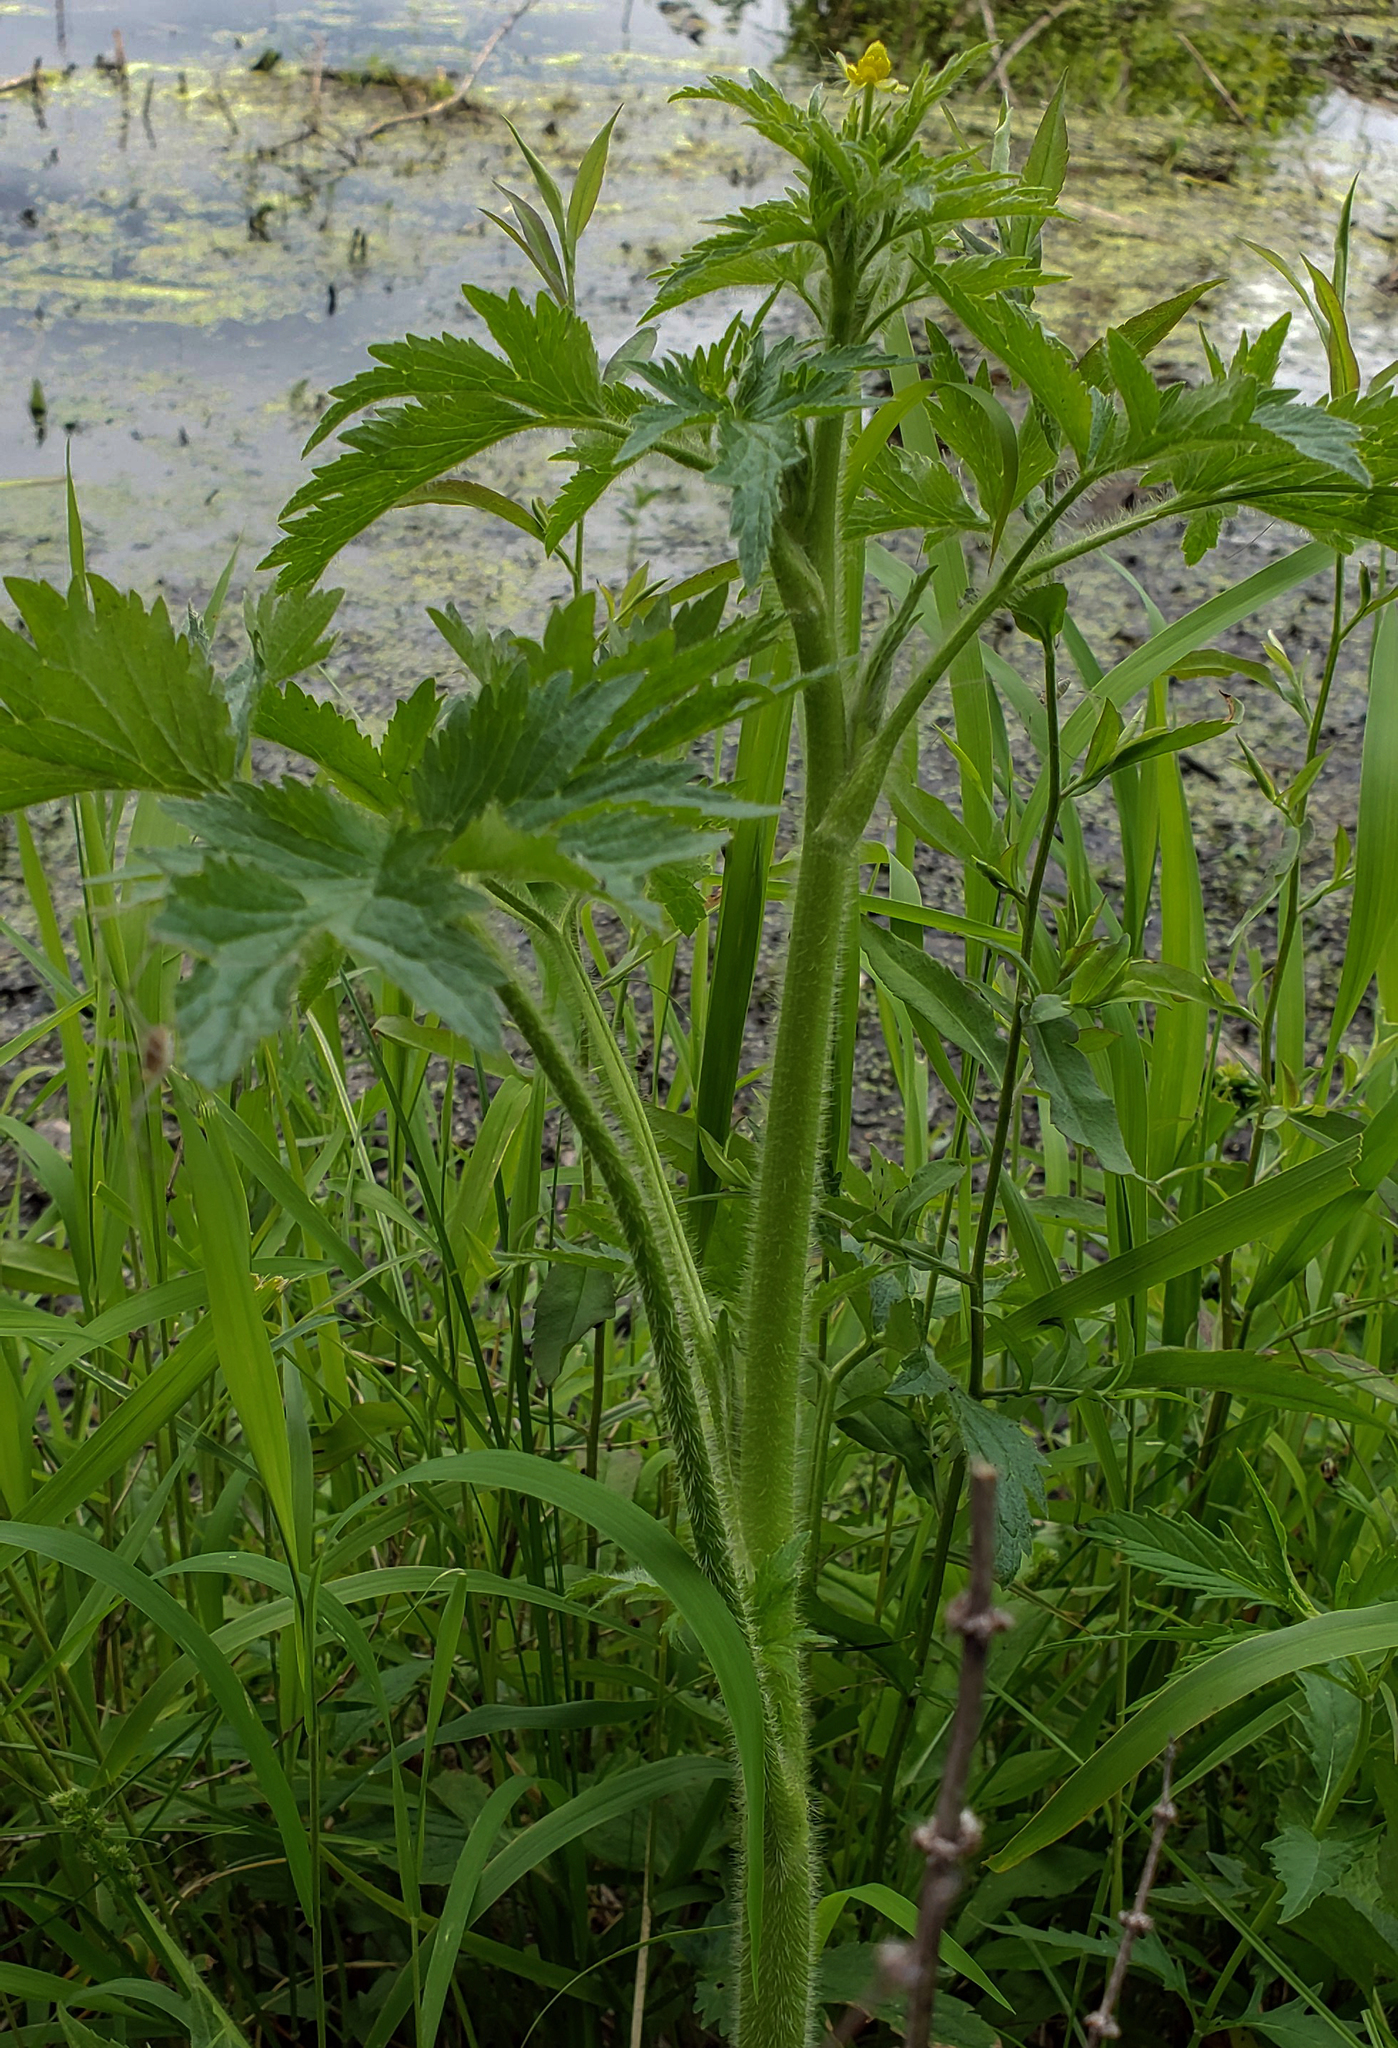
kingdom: Plantae
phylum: Tracheophyta
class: Magnoliopsida
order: Ranunculales
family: Ranunculaceae
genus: Ranunculus
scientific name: Ranunculus pensylvanicus
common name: Bristly buttercup
